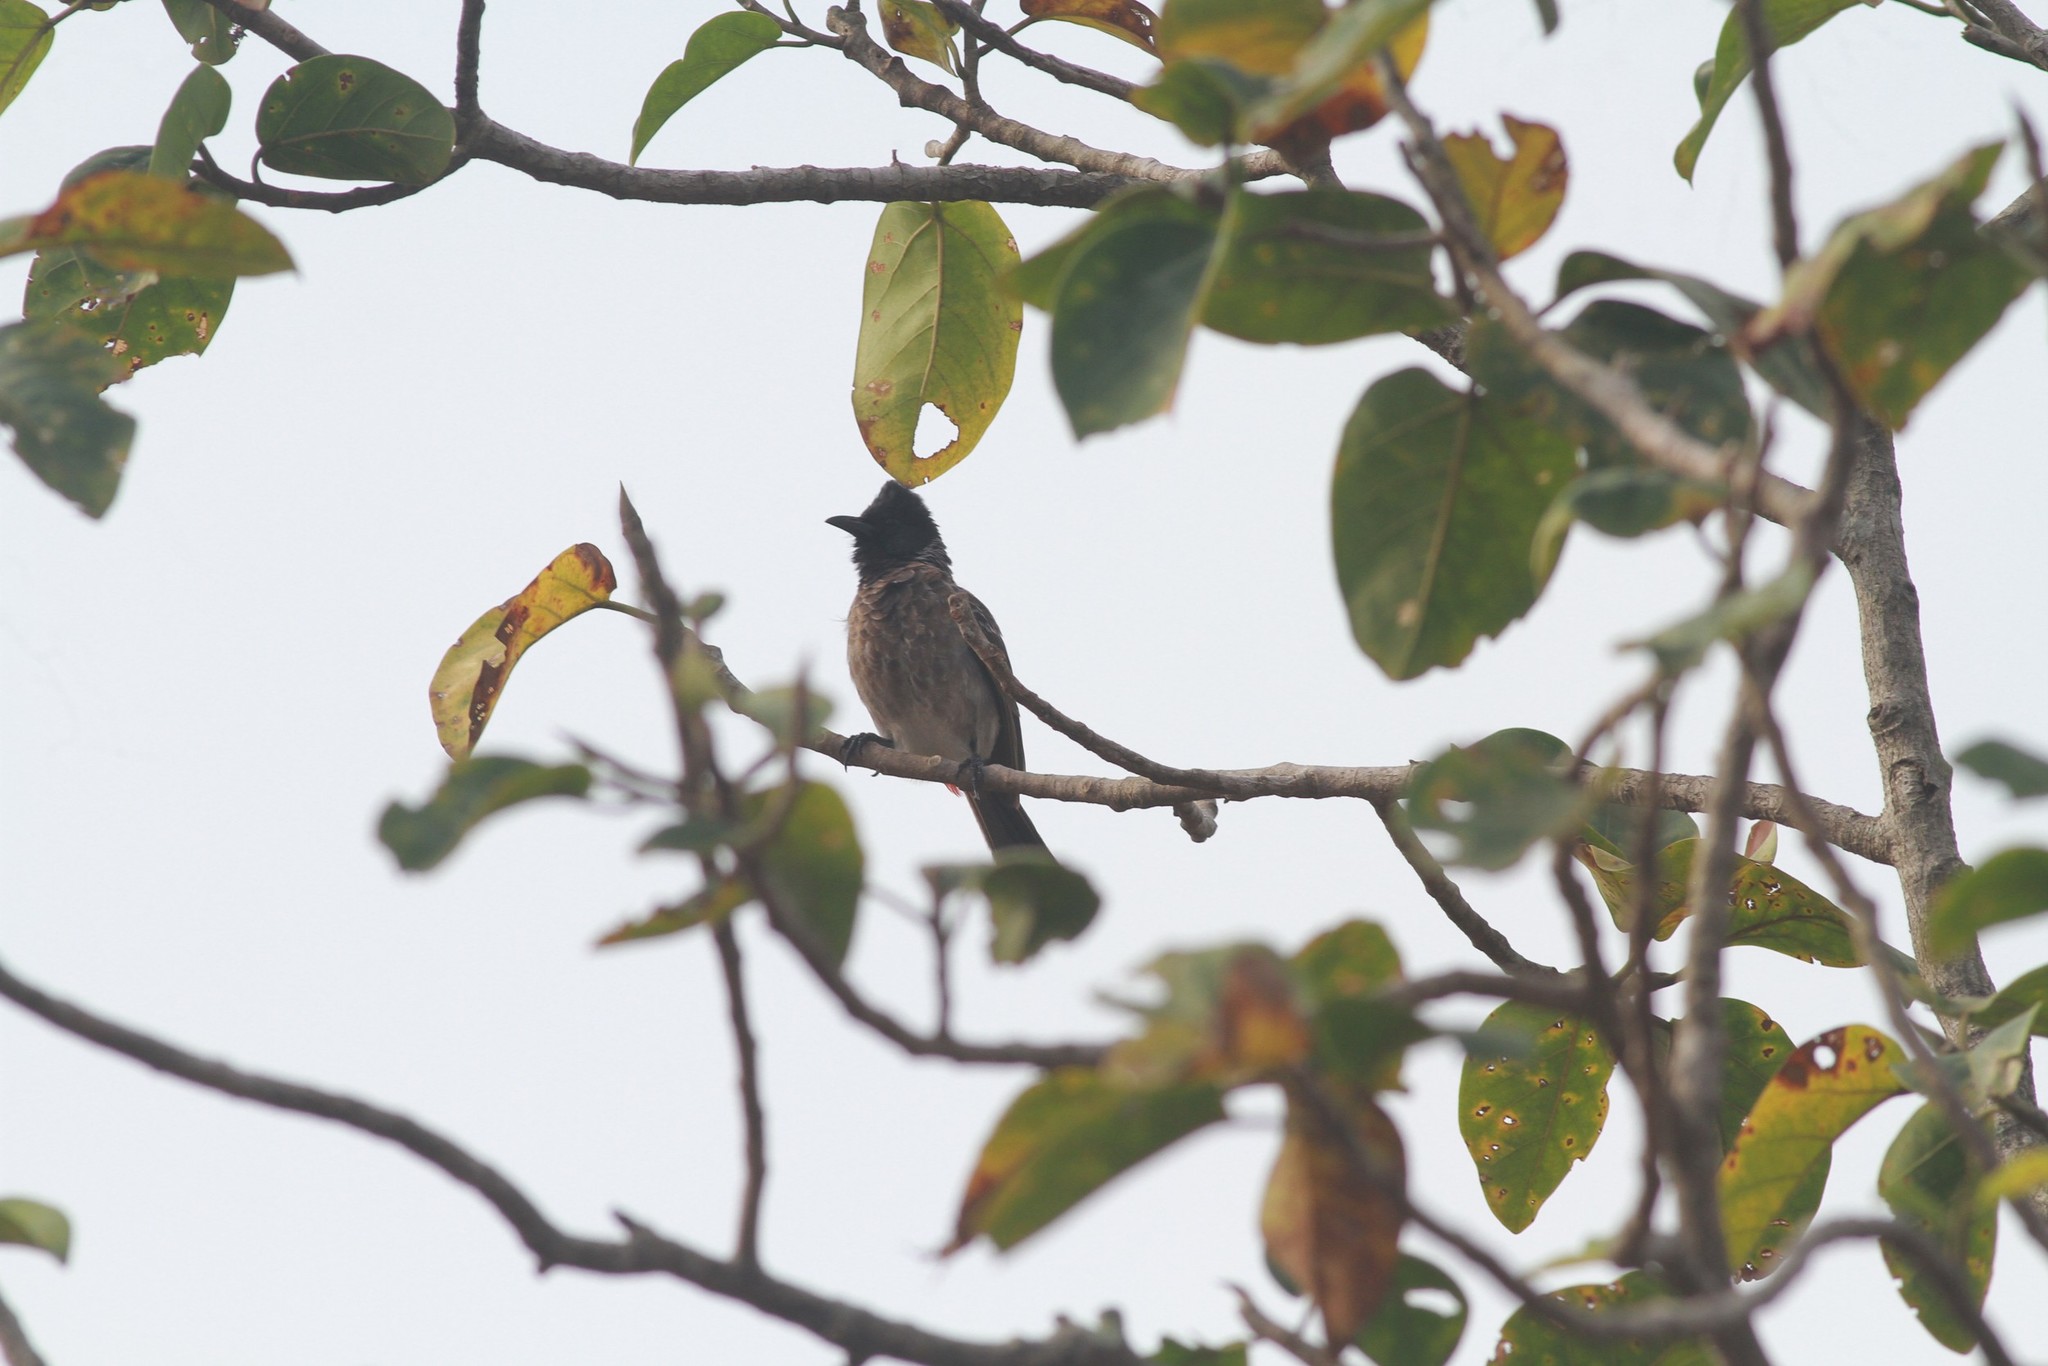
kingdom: Animalia
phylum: Chordata
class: Aves
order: Passeriformes
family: Pycnonotidae
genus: Pycnonotus
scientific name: Pycnonotus cafer
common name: Red-vented bulbul
